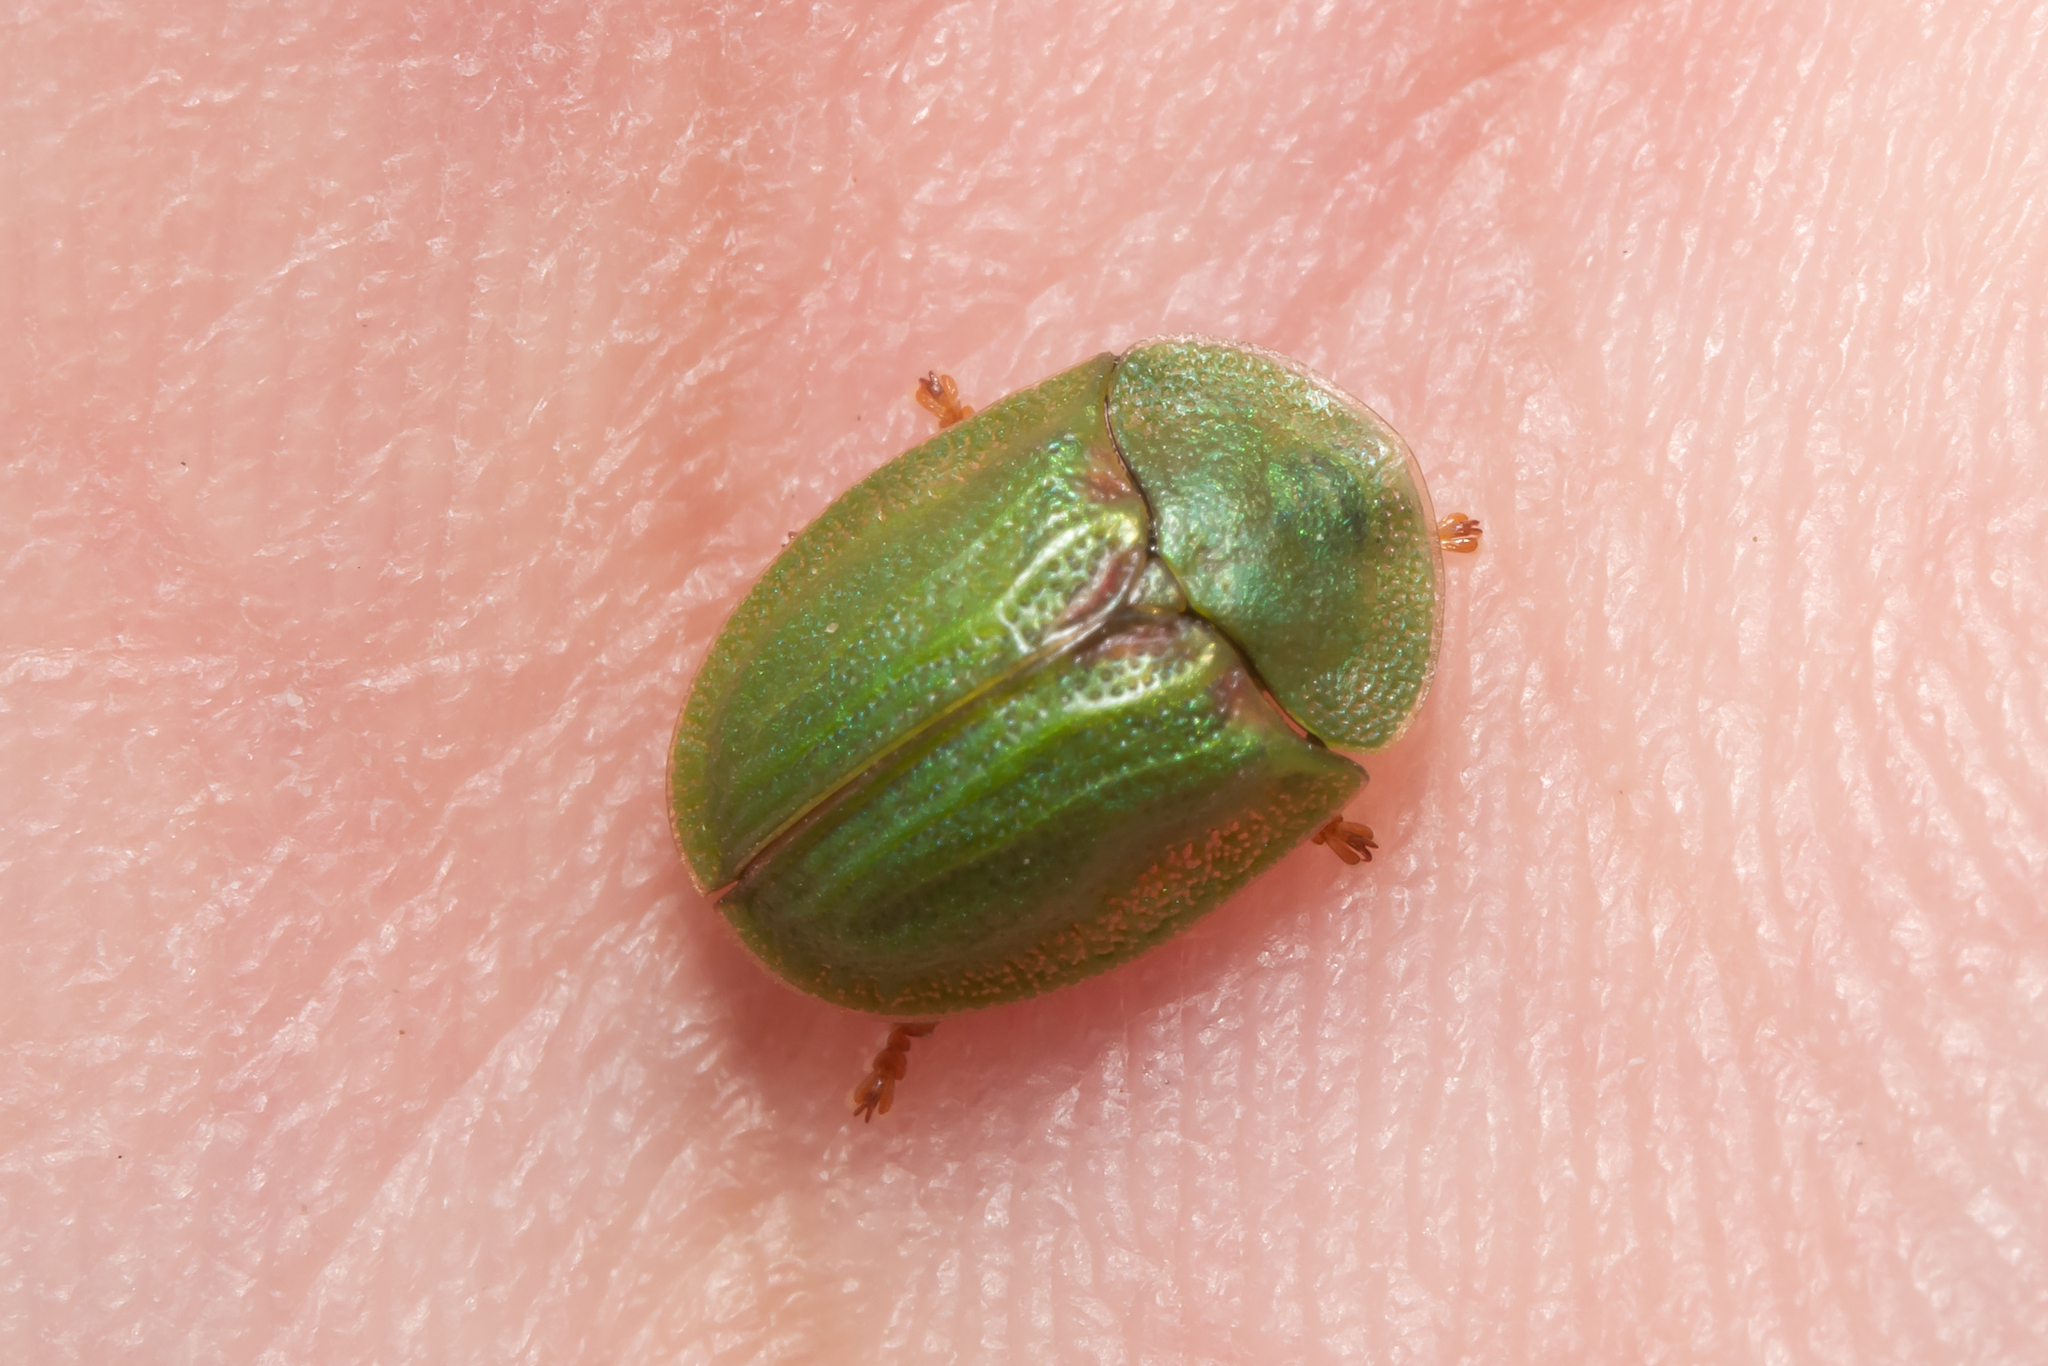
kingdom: Animalia
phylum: Arthropoda
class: Insecta
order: Coleoptera
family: Chrysomelidae
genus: Cassida
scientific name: Cassida stigmatica
